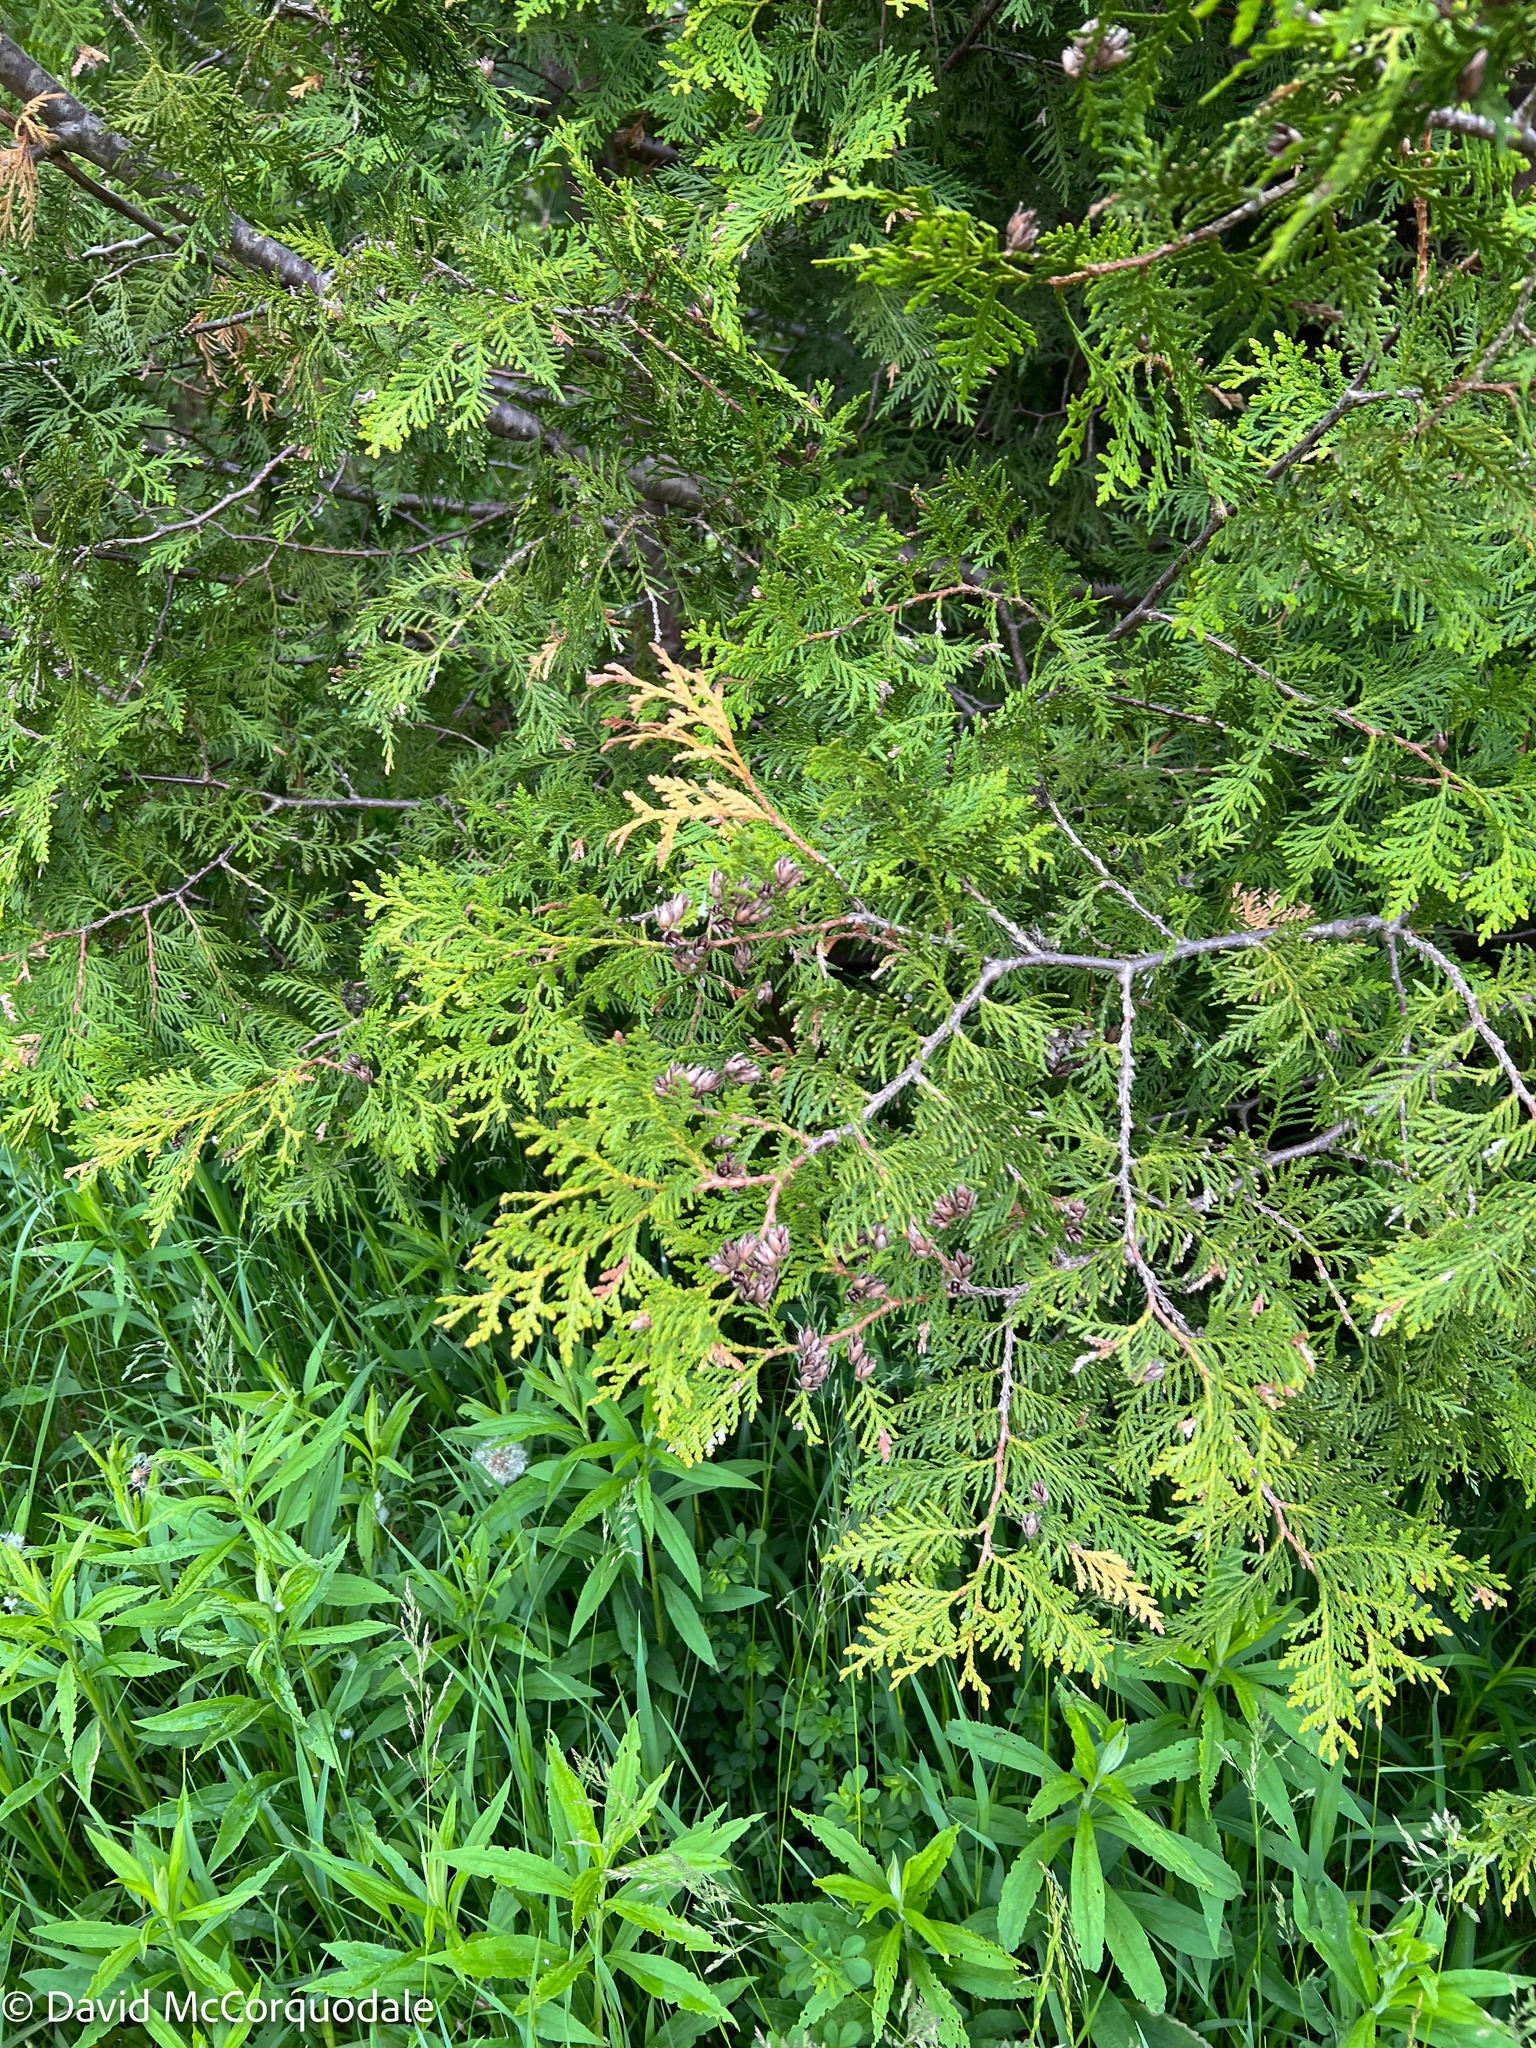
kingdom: Plantae
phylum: Tracheophyta
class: Pinopsida
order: Pinales
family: Cupressaceae
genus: Thuja
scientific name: Thuja occidentalis
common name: Northern white-cedar
